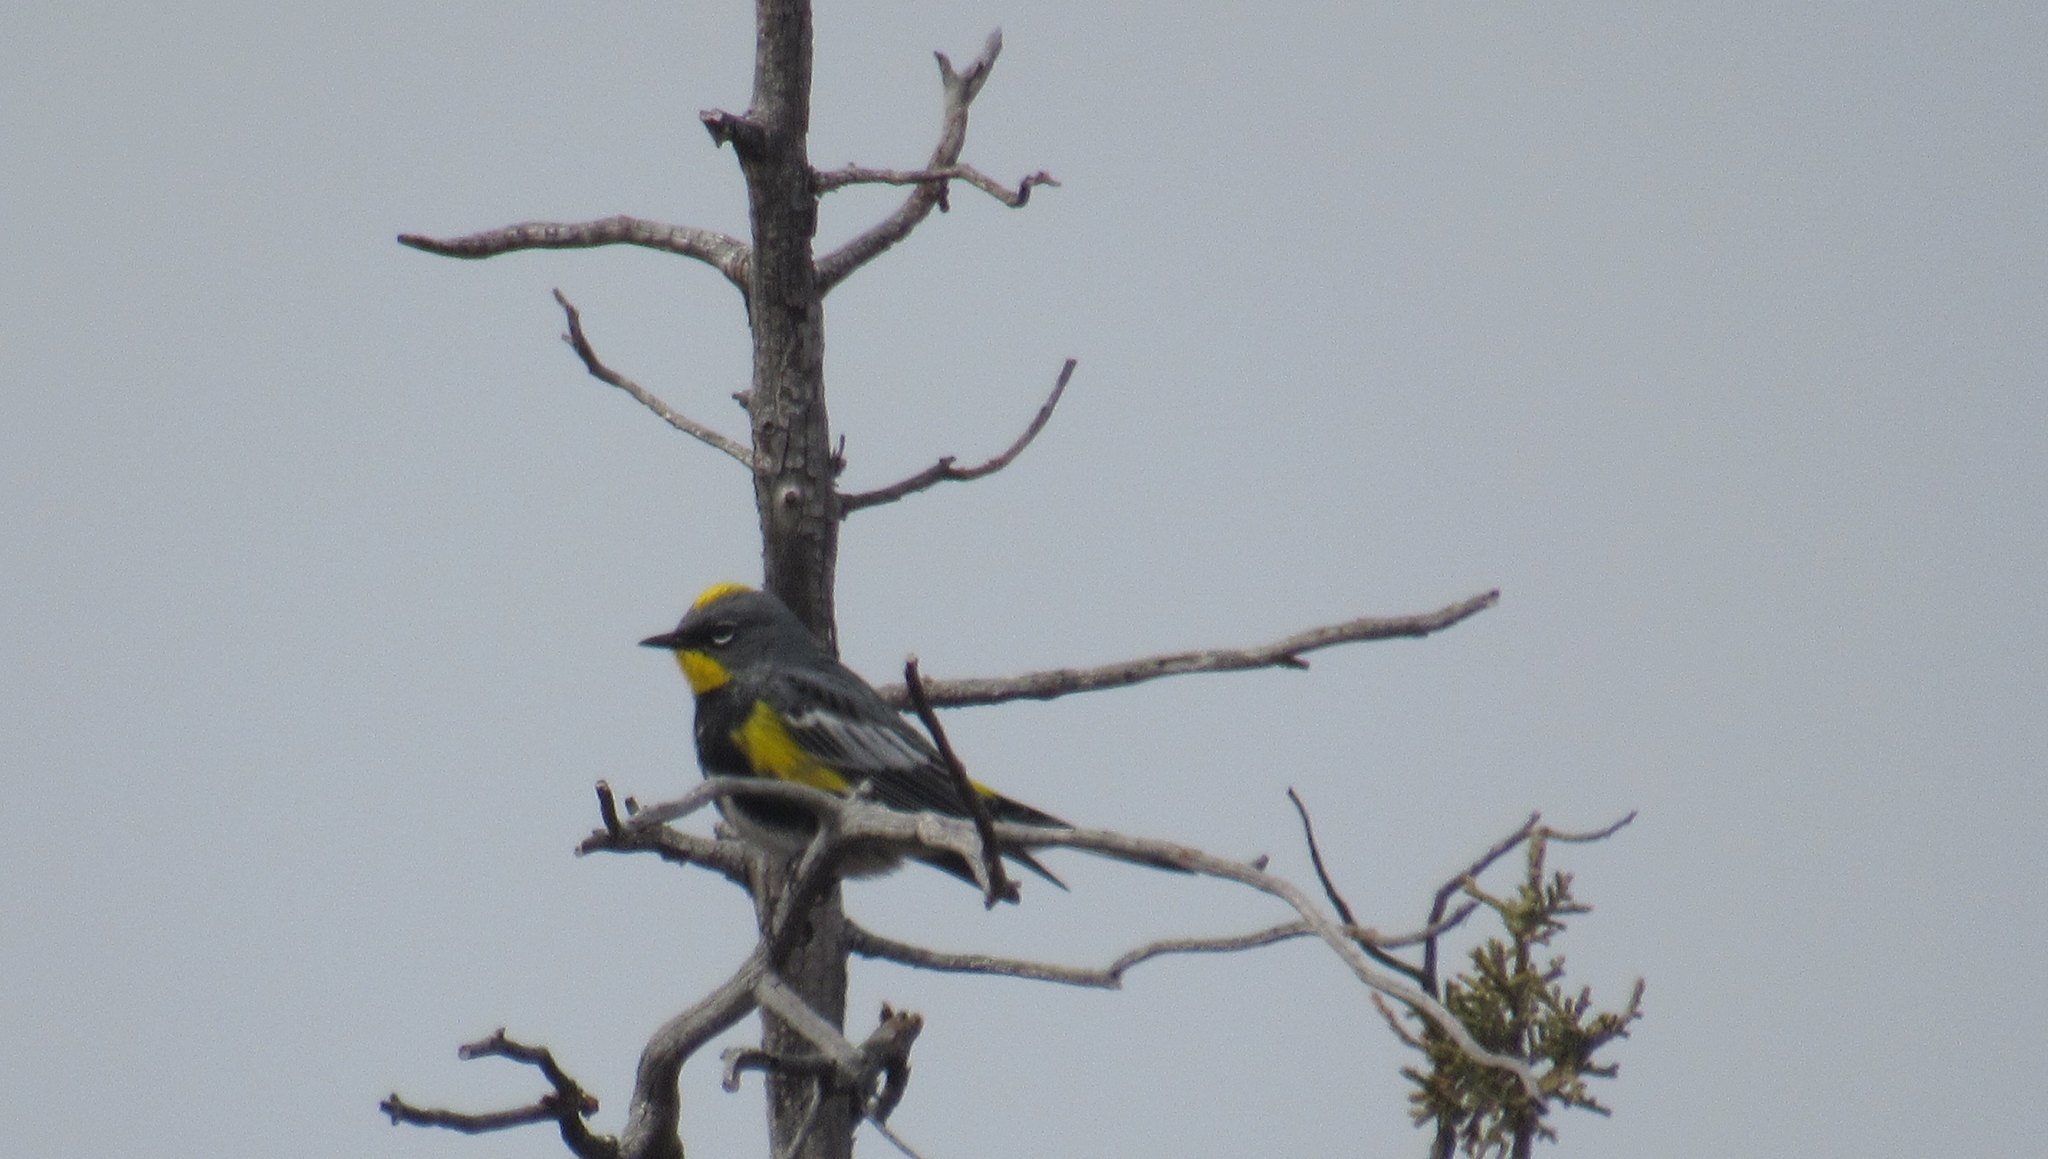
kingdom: Animalia
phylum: Chordata
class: Aves
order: Passeriformes
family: Parulidae
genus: Setophaga
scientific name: Setophaga coronata
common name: Myrtle warbler
